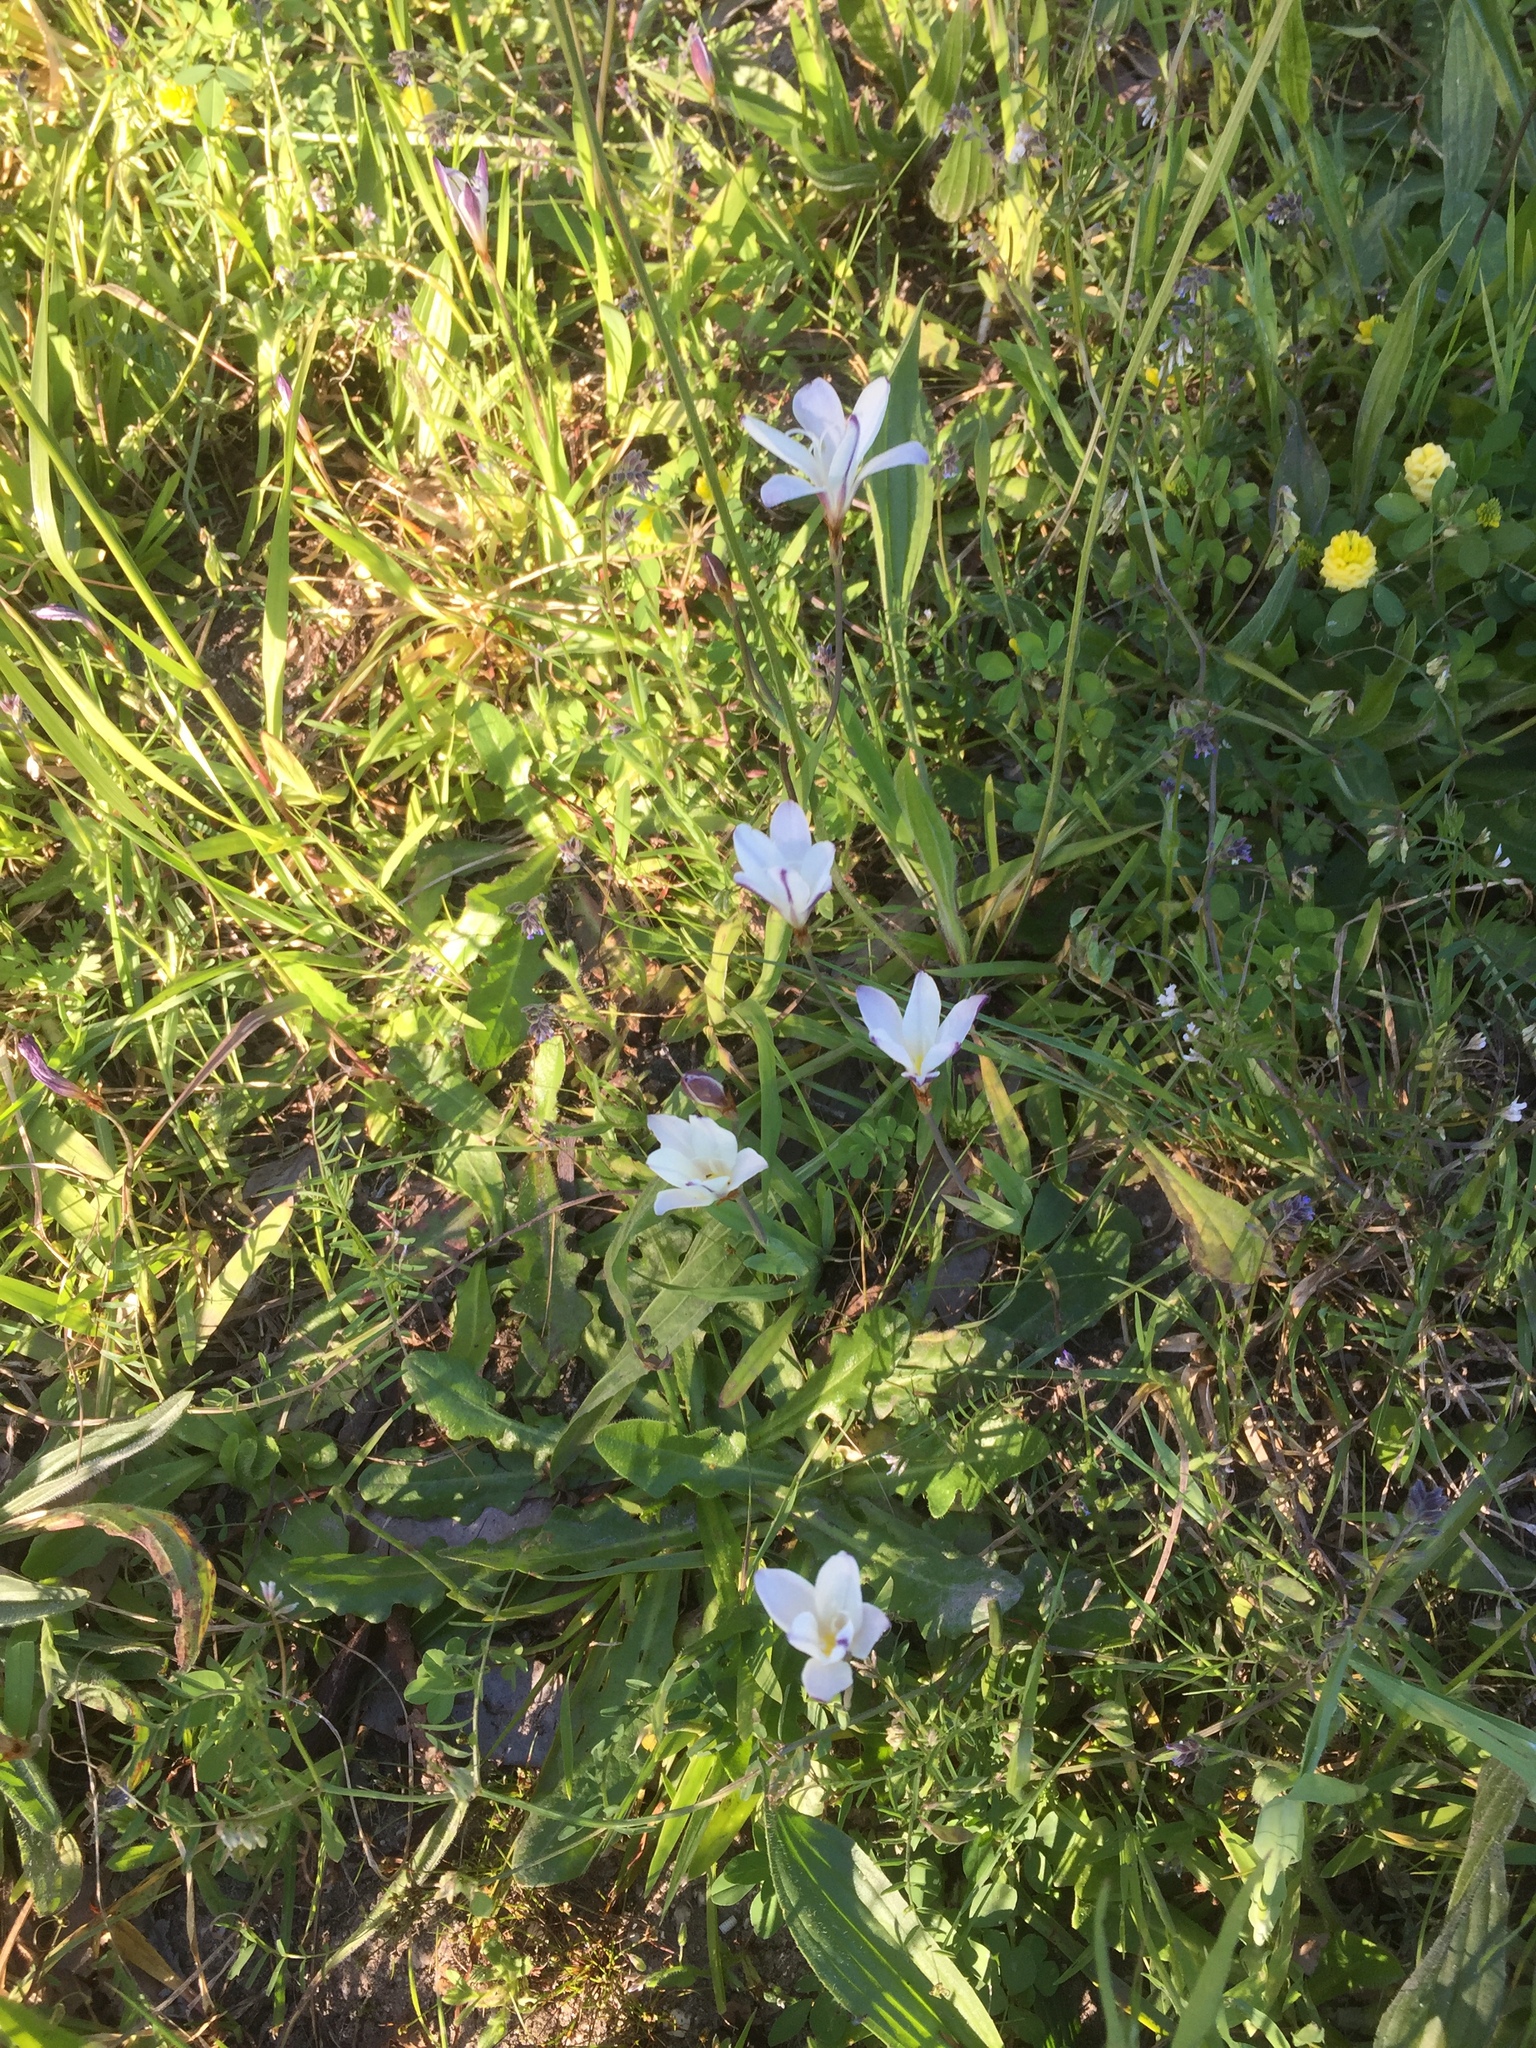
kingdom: Plantae
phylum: Tracheophyta
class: Liliopsida
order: Asparagales
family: Iridaceae
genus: Sparaxis
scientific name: Sparaxis bulbifera
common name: Harlequin-flower
